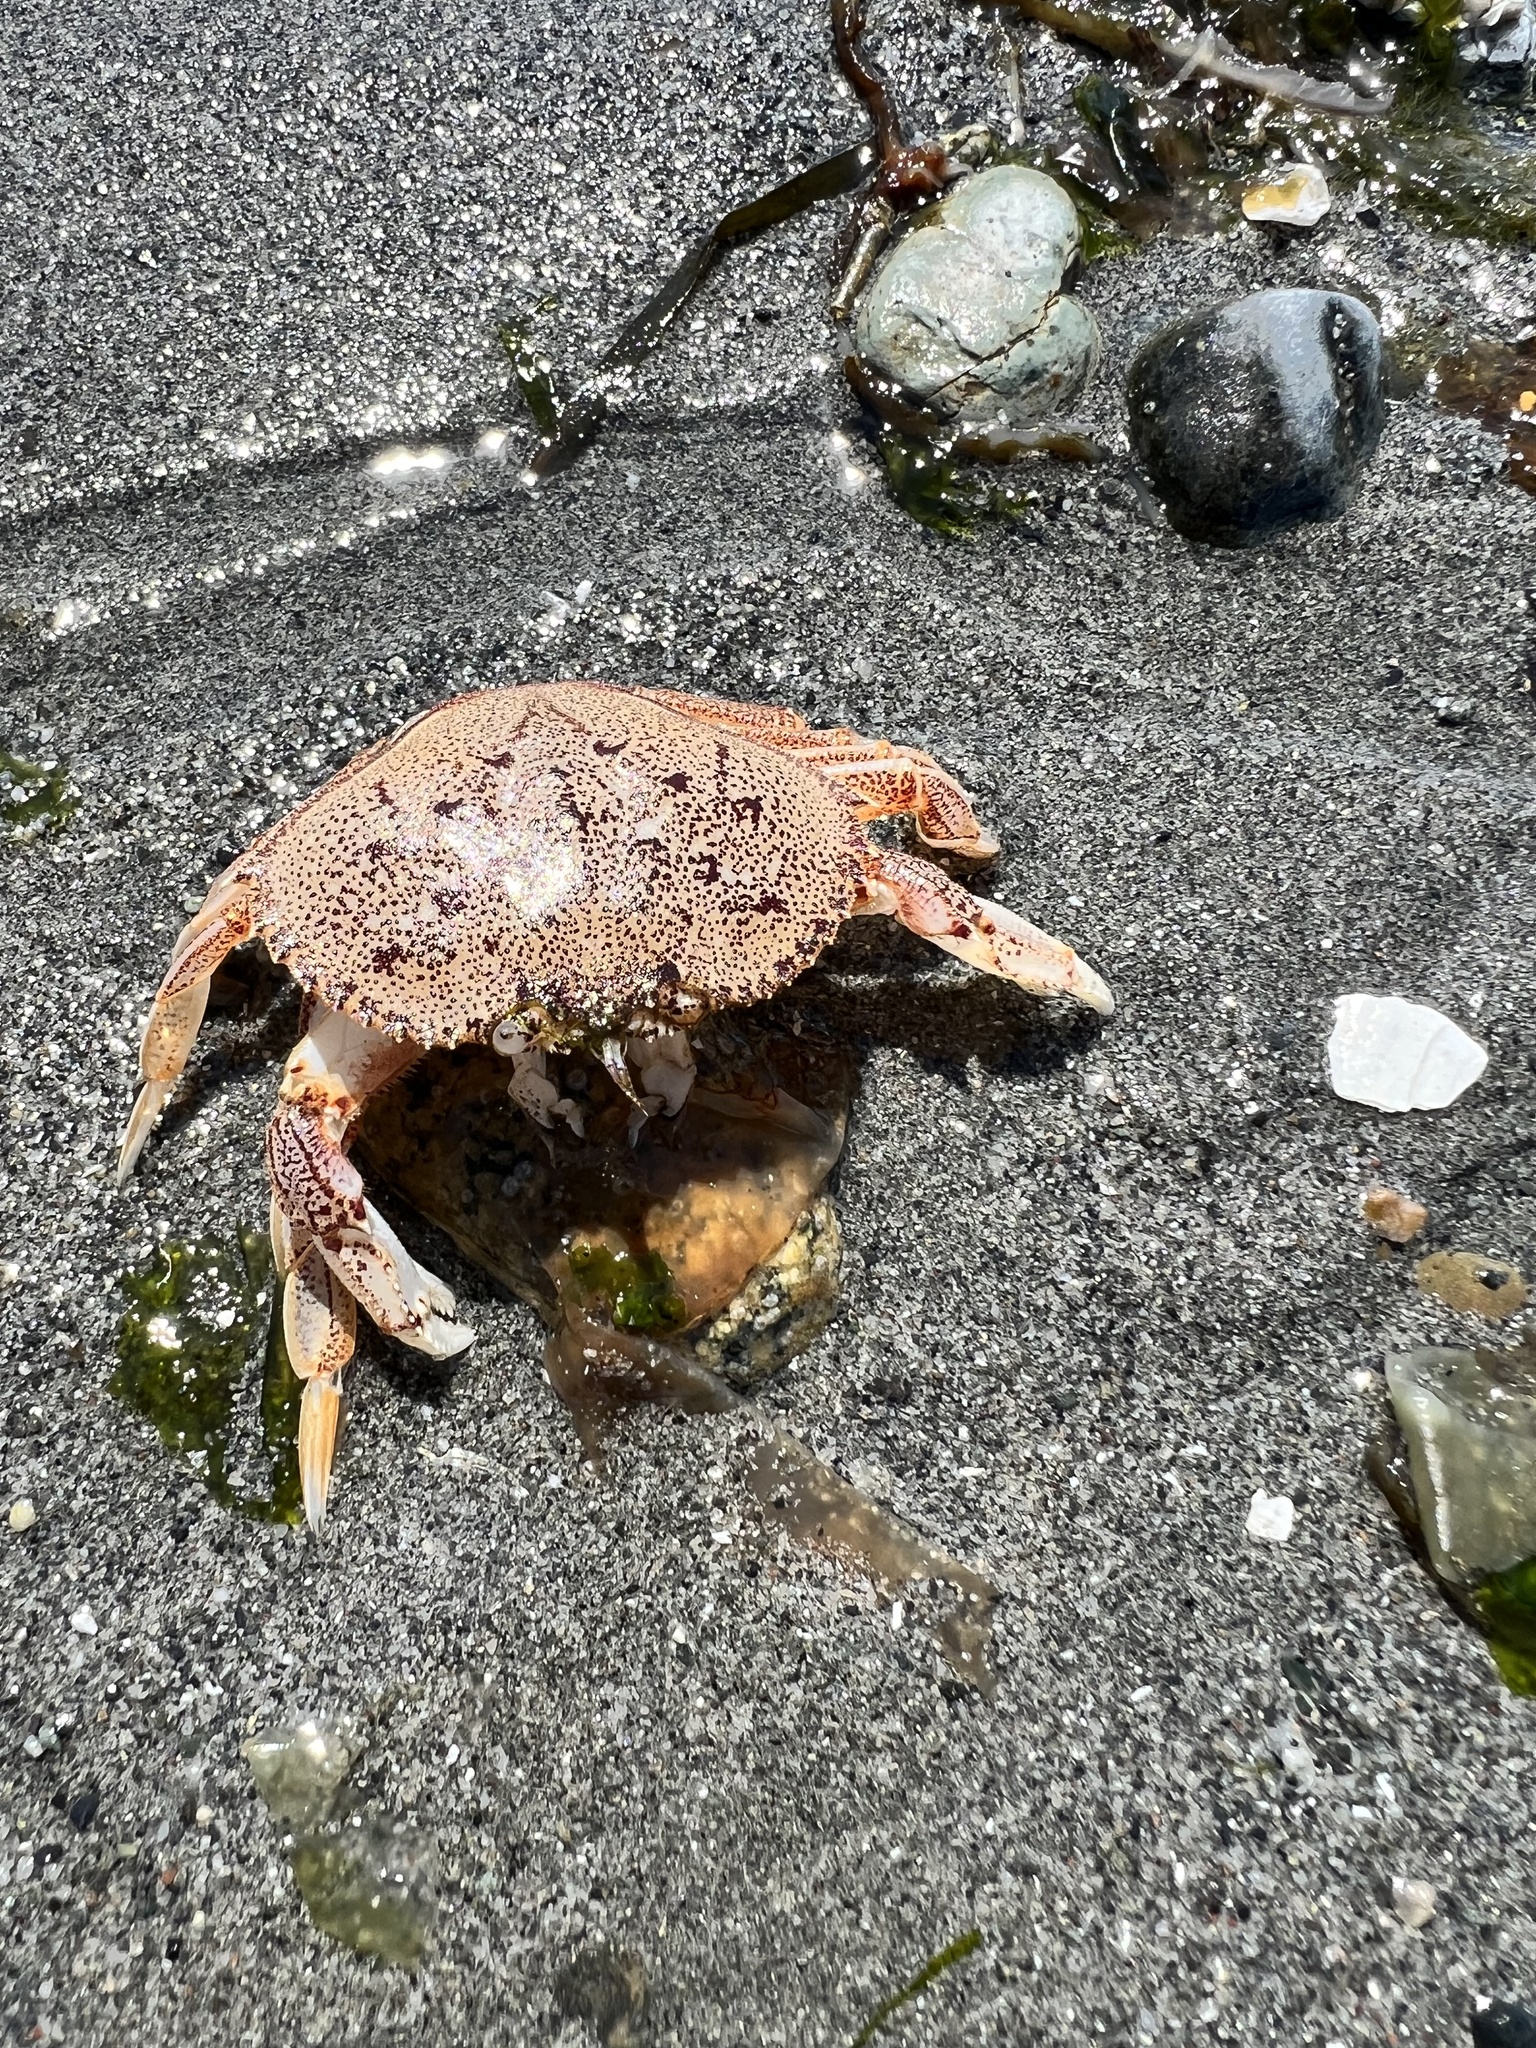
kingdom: Animalia
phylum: Arthropoda
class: Malacostraca
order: Decapoda
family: Cancridae
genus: Metacarcinus
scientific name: Metacarcinus magister
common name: Californian crab
